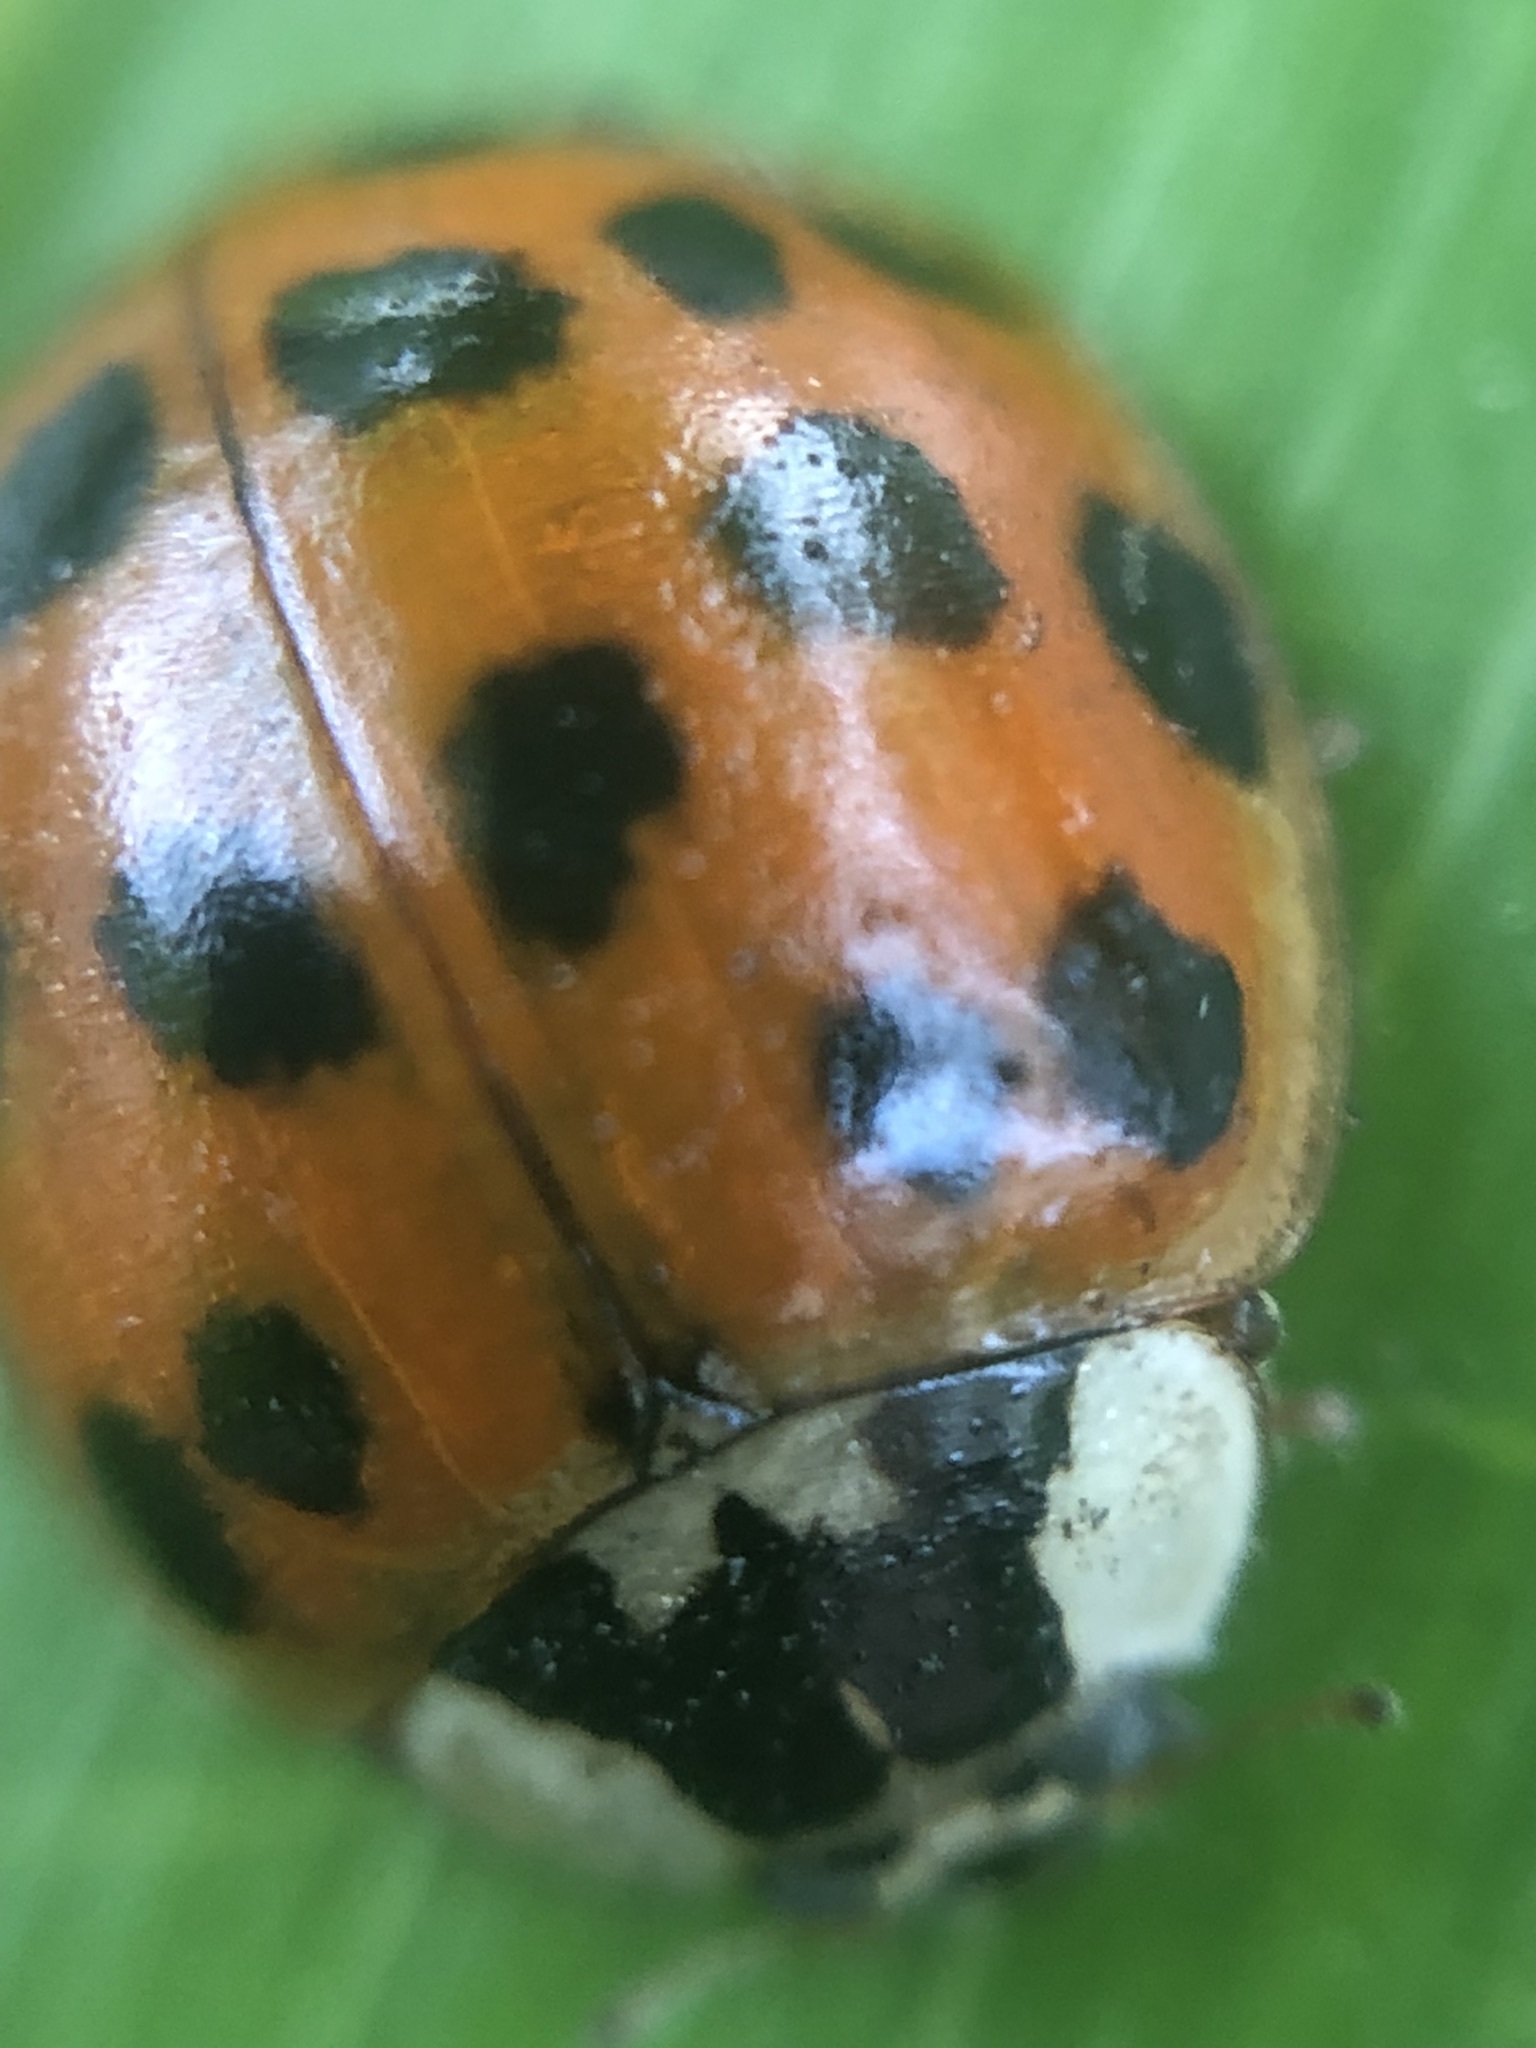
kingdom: Animalia
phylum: Arthropoda
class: Insecta
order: Coleoptera
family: Coccinellidae
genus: Harmonia
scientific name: Harmonia axyridis
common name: Harlequin ladybird
